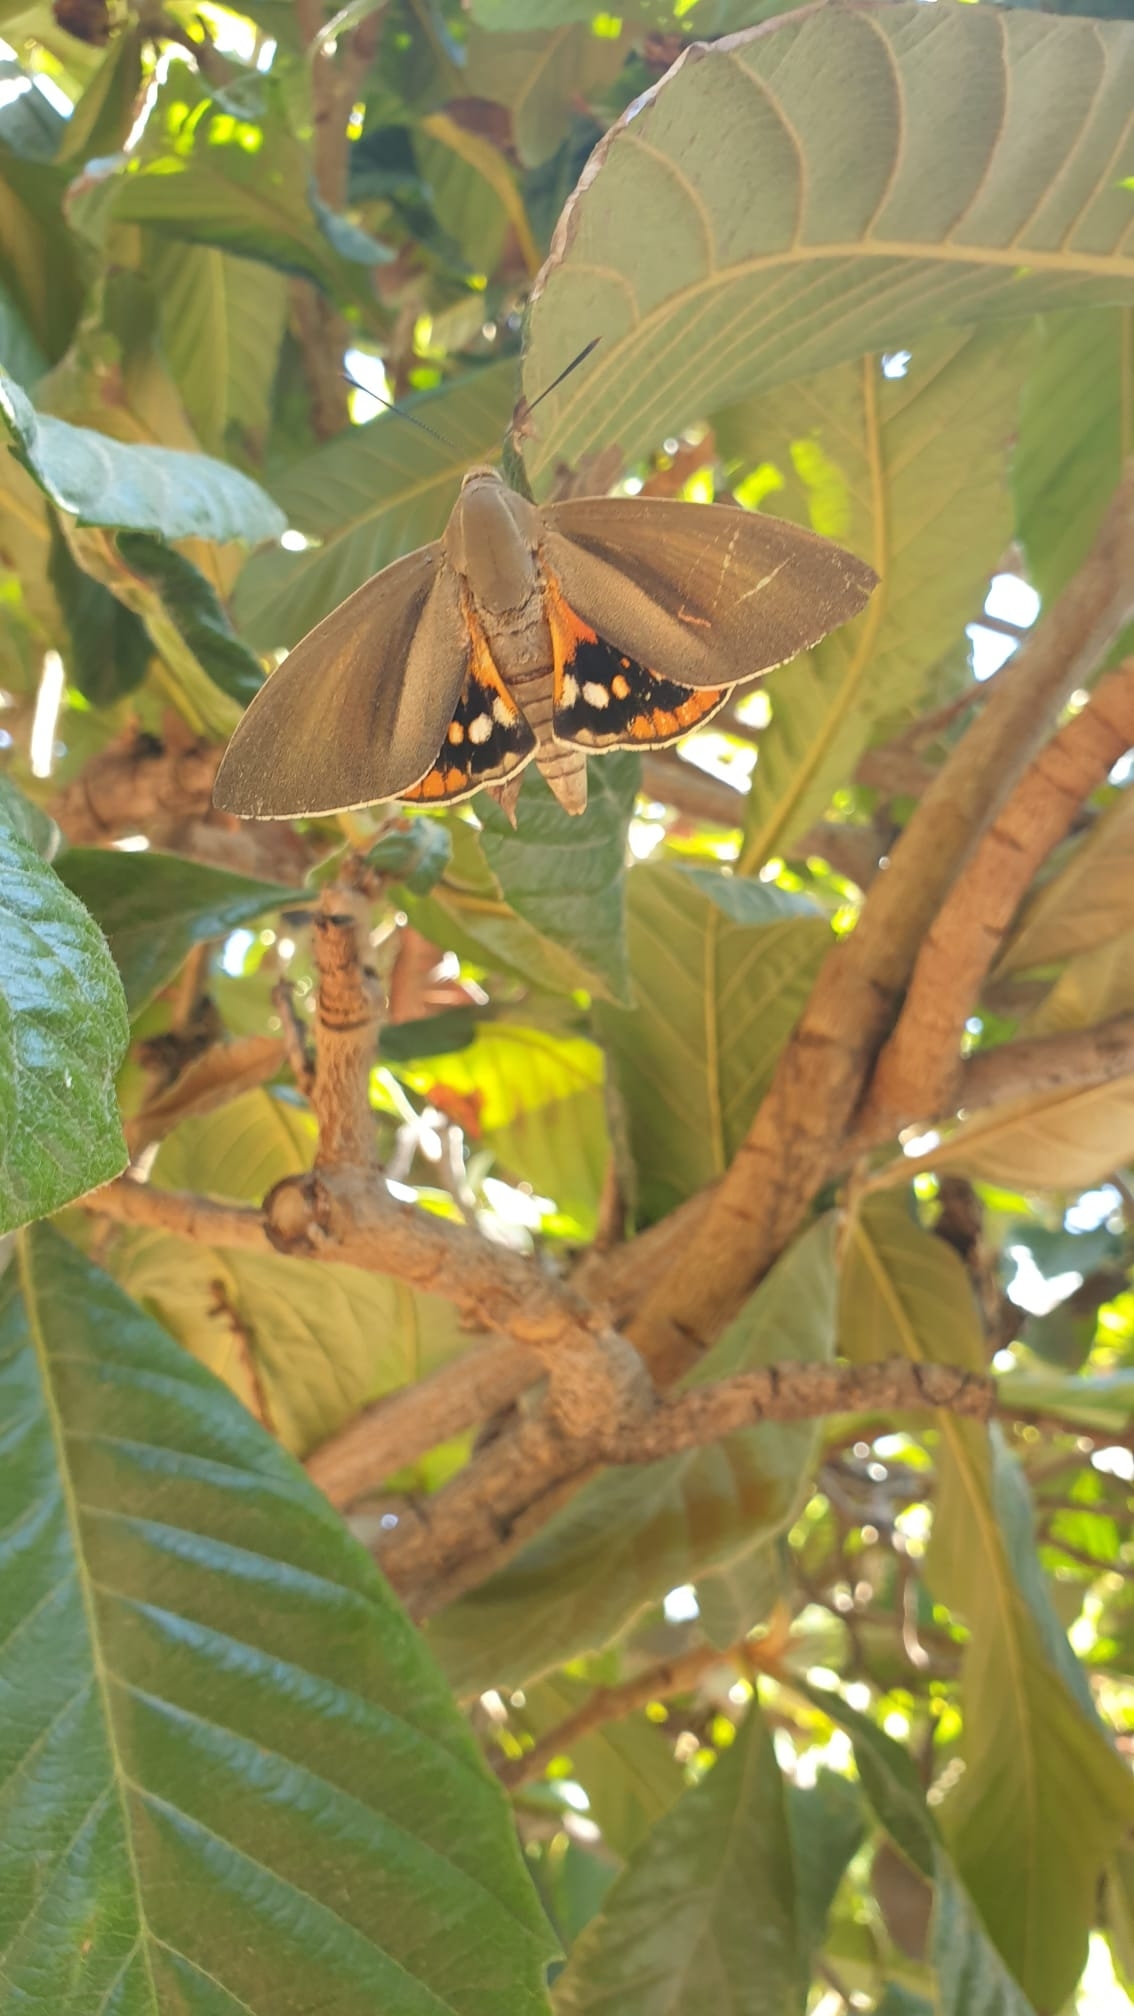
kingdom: Animalia
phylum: Arthropoda
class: Insecta
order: Lepidoptera
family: Castniidae
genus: Paysandisia
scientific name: Paysandisia archon
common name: Palm moth
